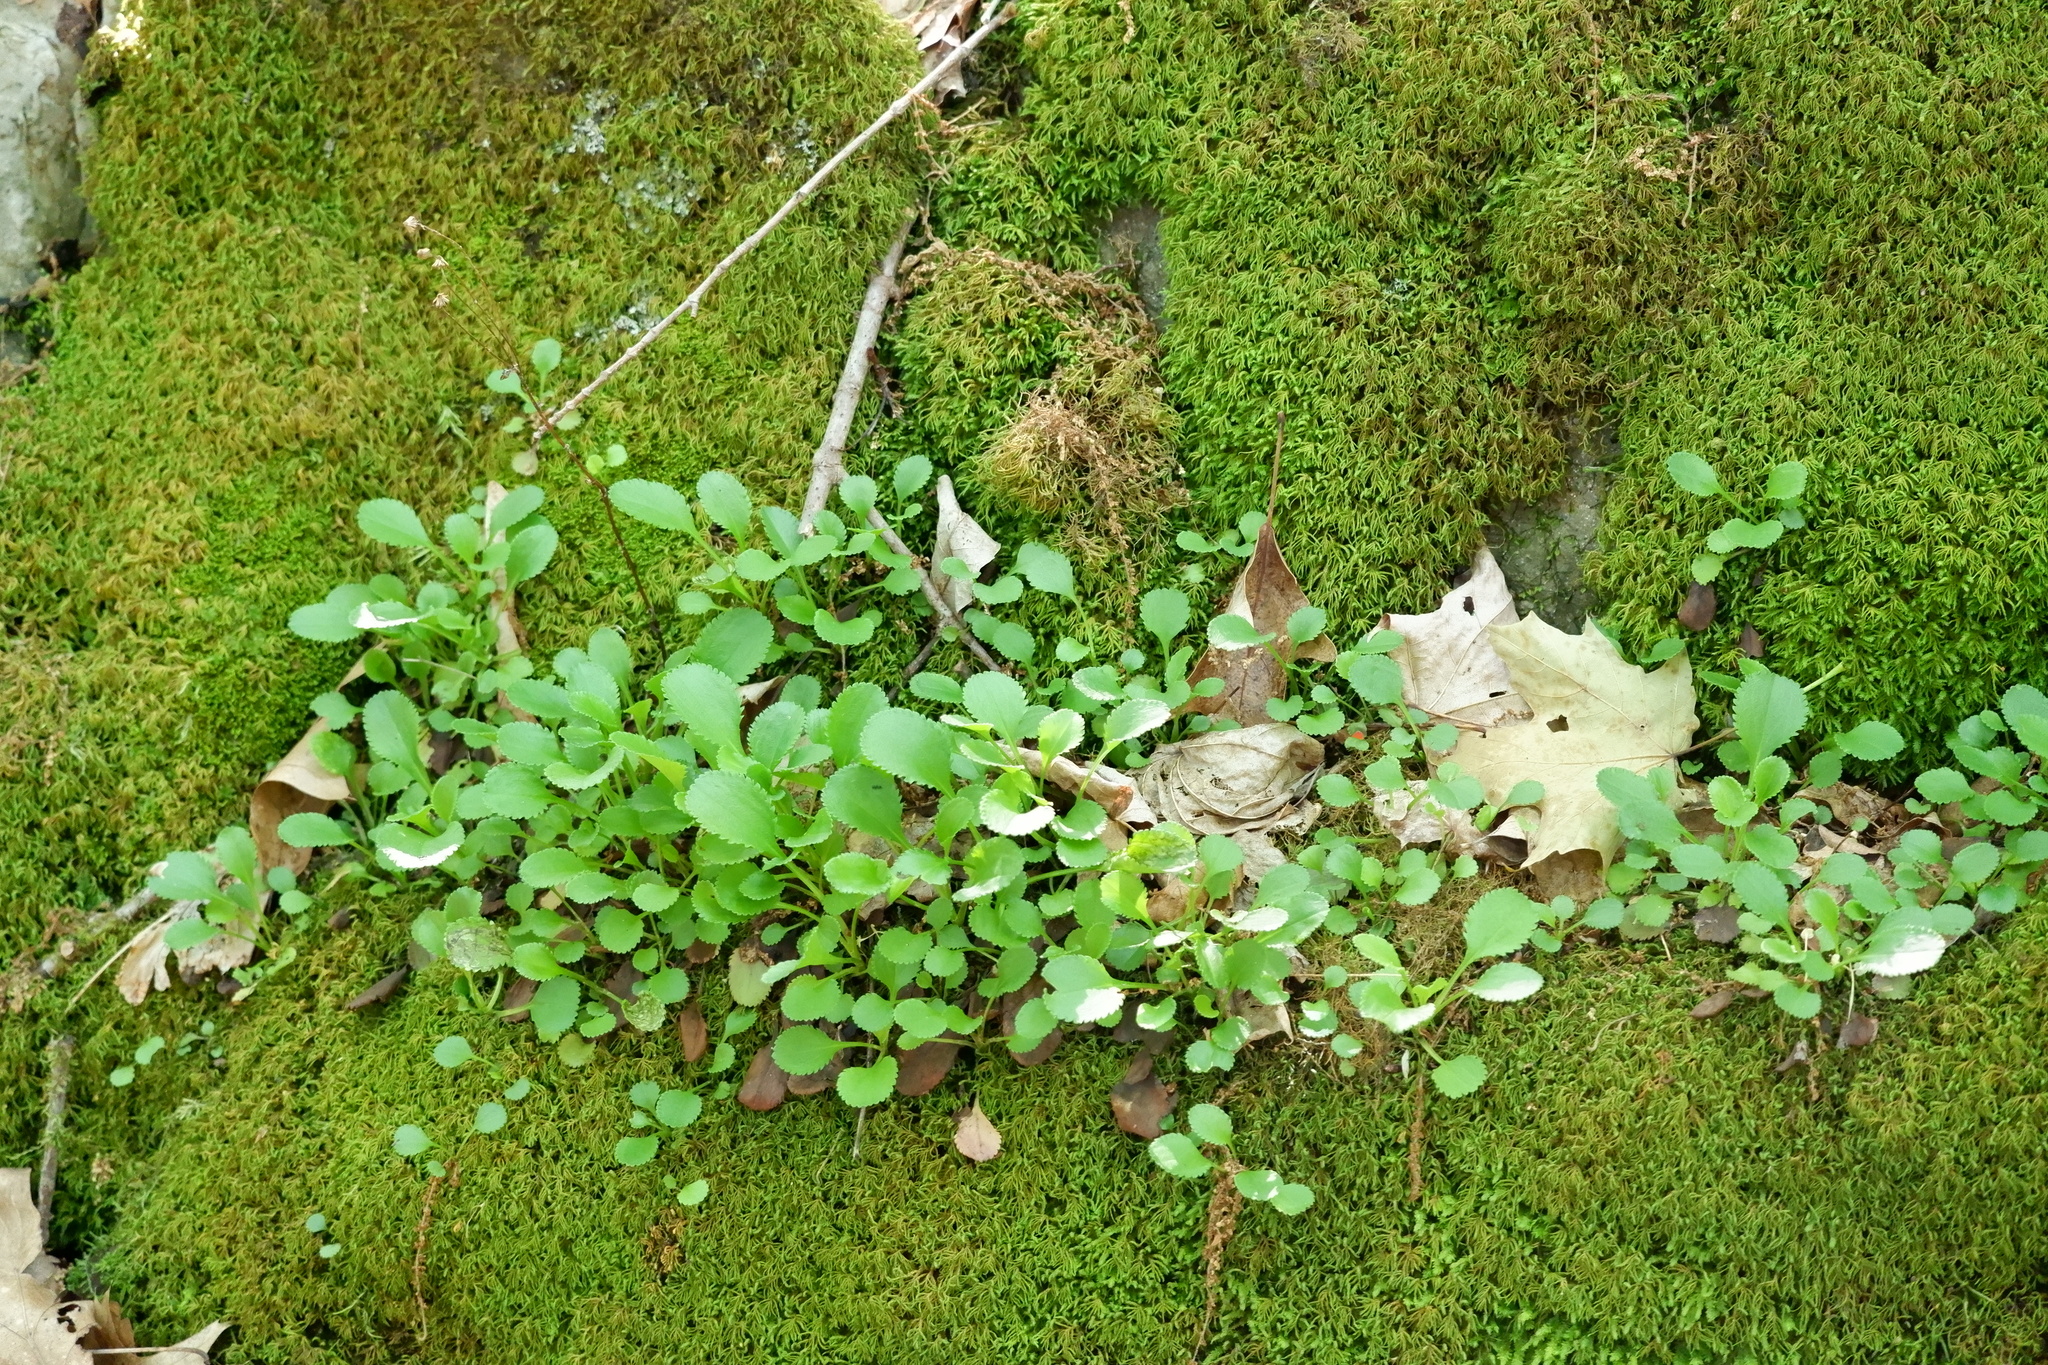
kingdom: Plantae
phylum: Tracheophyta
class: Magnoliopsida
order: Asterales
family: Asteraceae
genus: Packera
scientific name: Packera obovata
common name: Round-leaf ragwort
